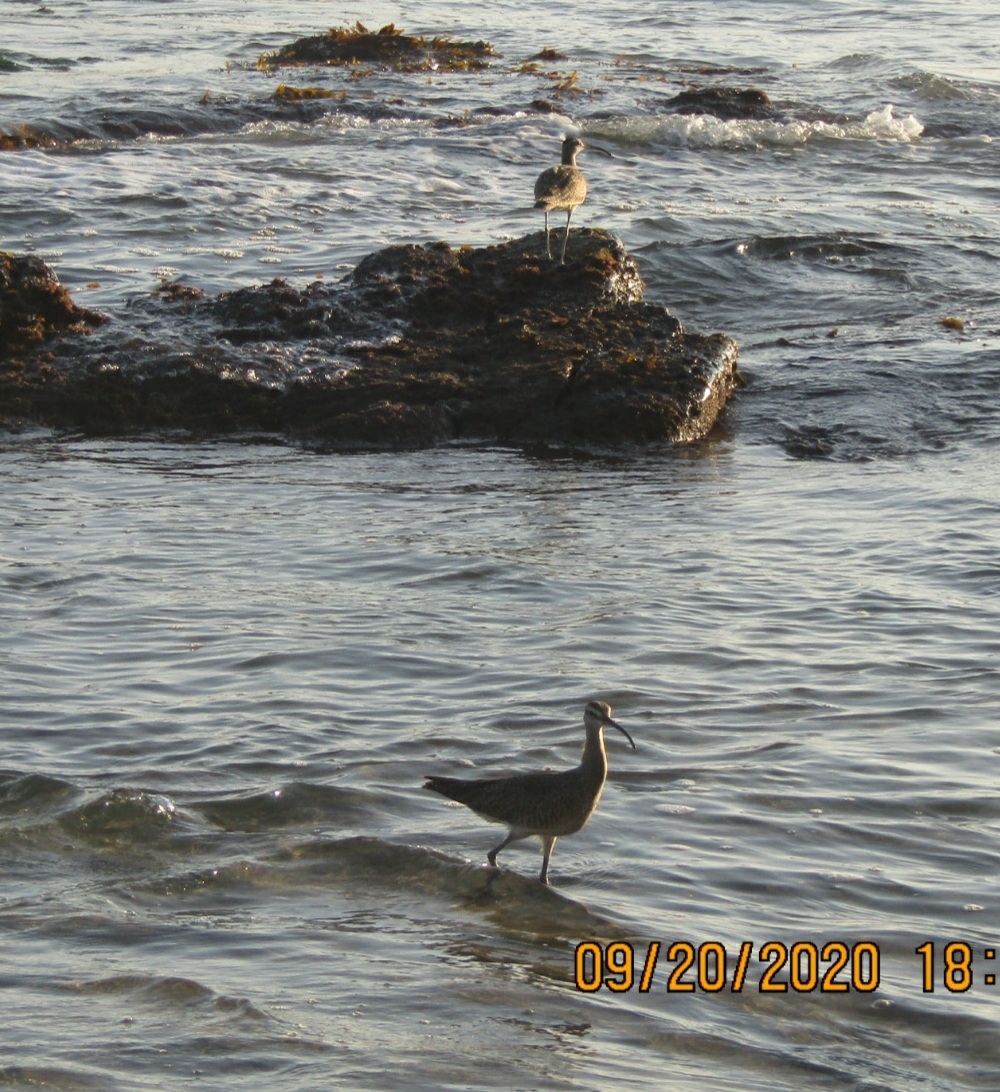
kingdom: Animalia
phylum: Chordata
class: Aves
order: Charadriiformes
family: Scolopacidae
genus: Numenius
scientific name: Numenius phaeopus
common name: Whimbrel
